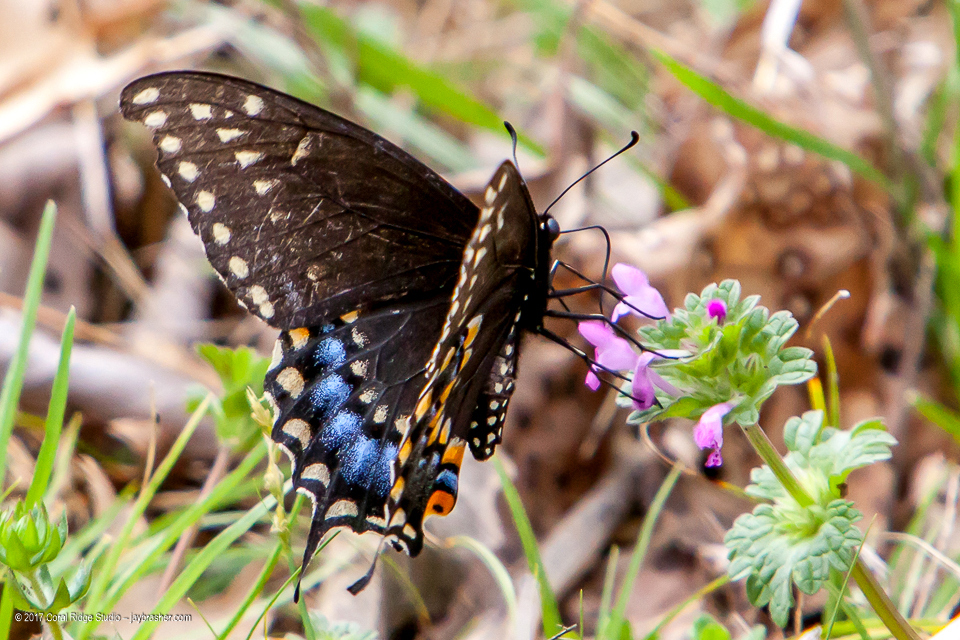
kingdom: Animalia
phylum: Arthropoda
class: Insecta
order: Lepidoptera
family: Papilionidae
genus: Papilio
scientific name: Papilio polyxenes
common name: Black swallowtail
